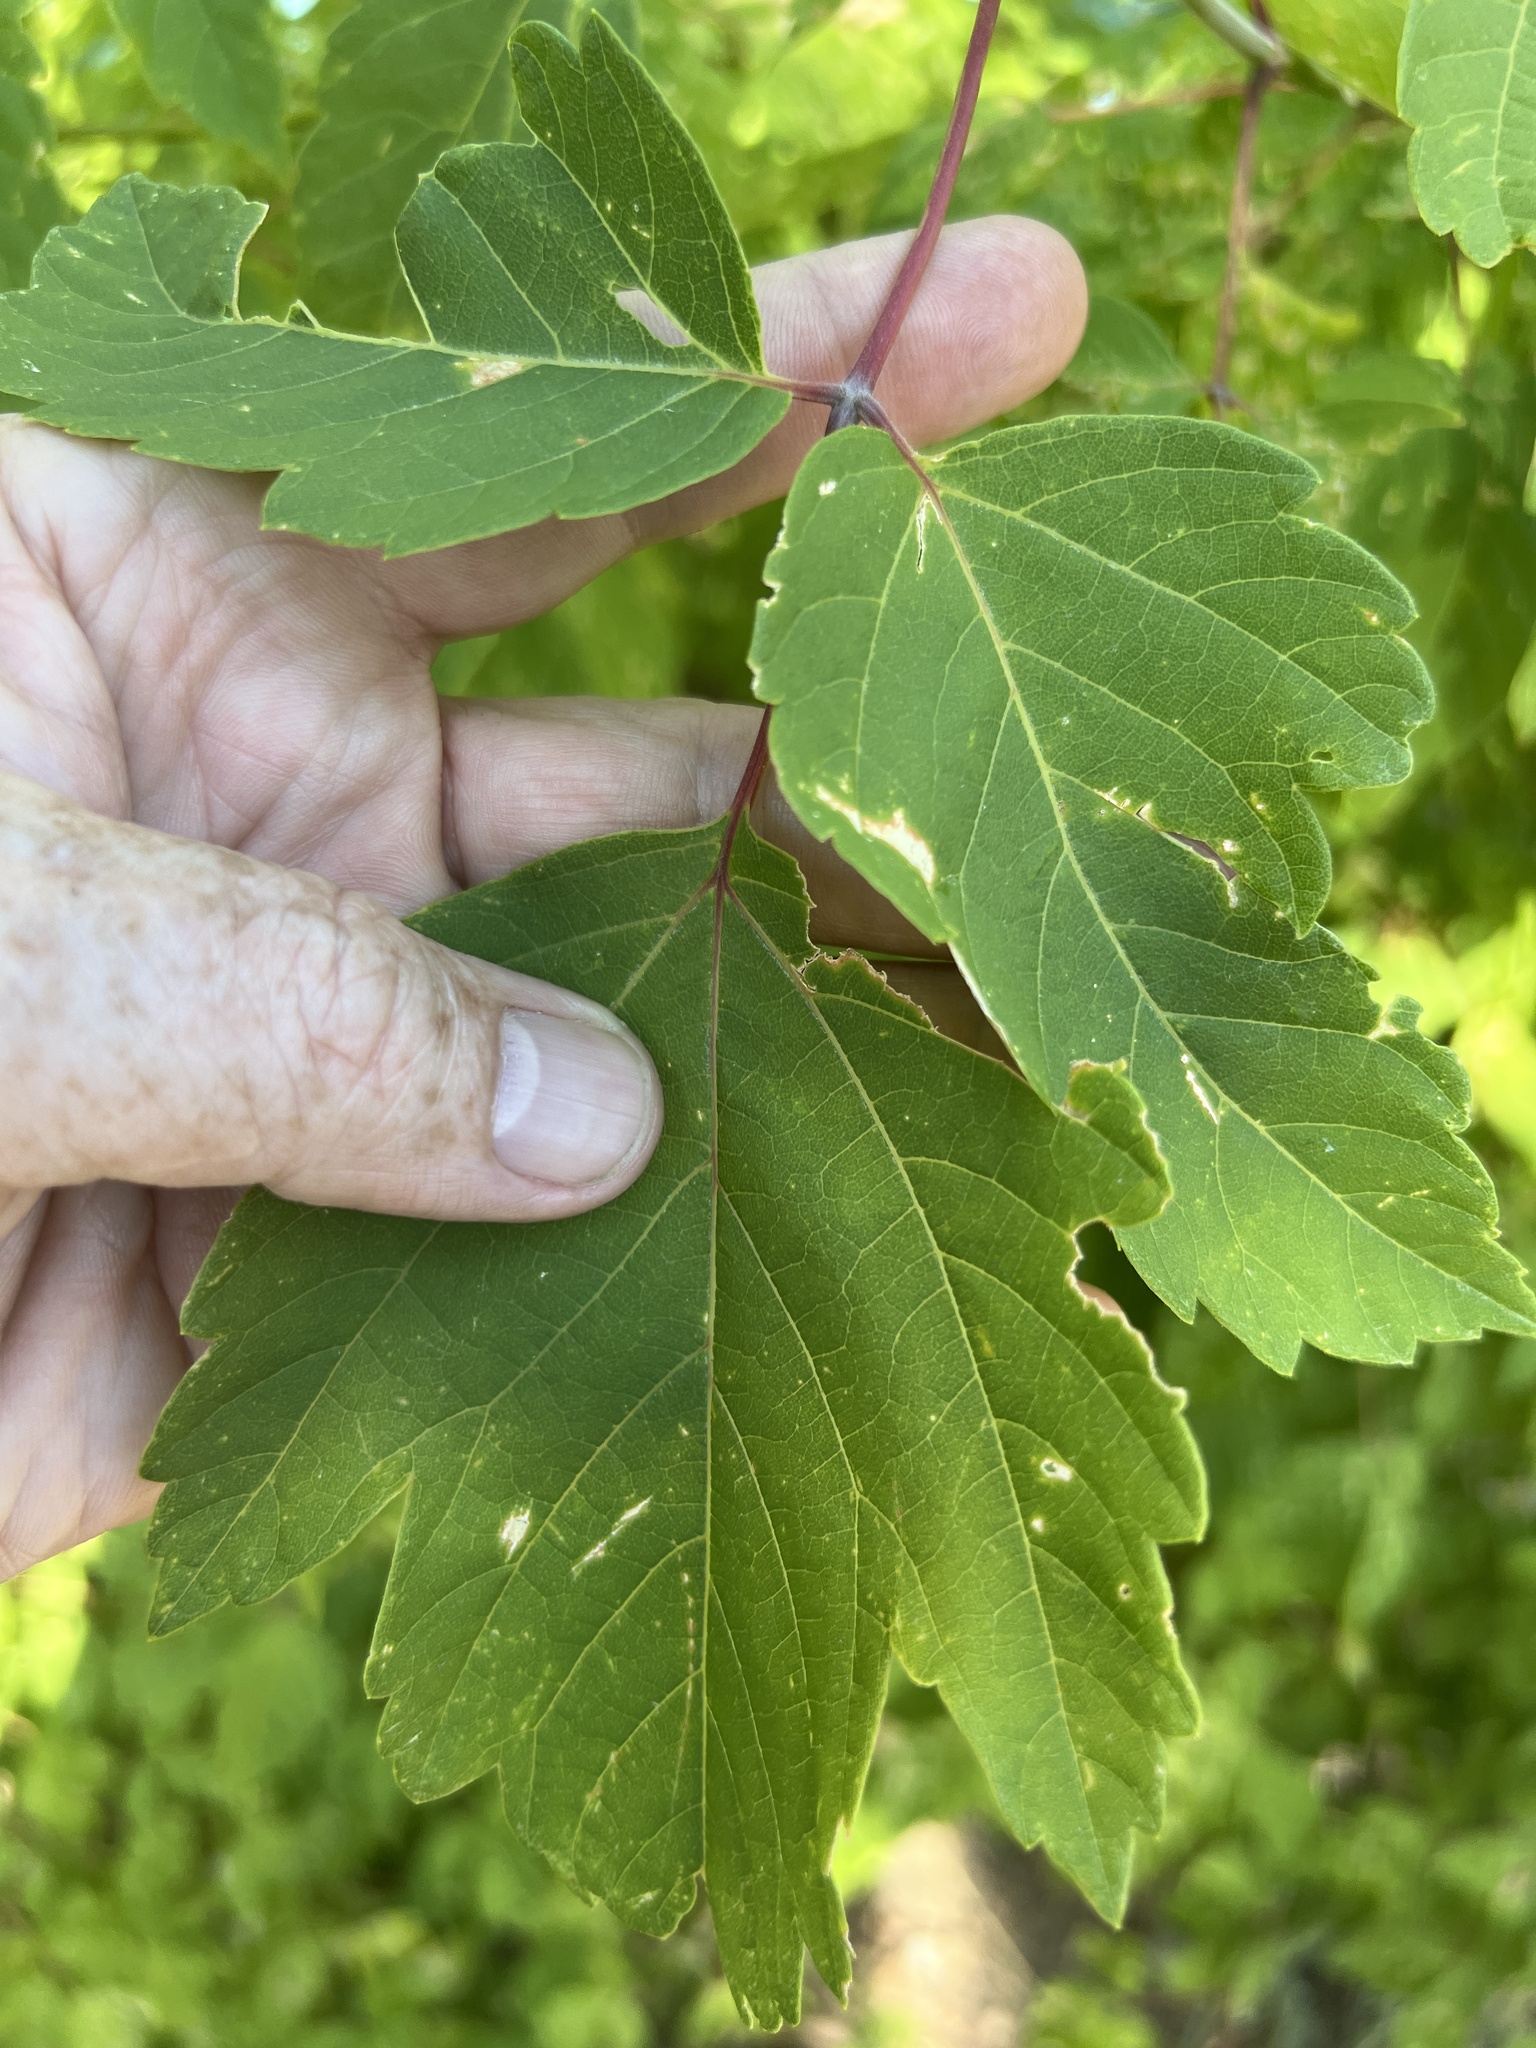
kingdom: Plantae
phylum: Tracheophyta
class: Magnoliopsida
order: Sapindales
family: Sapindaceae
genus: Acer
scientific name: Acer negundo
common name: Ashleaf maple
